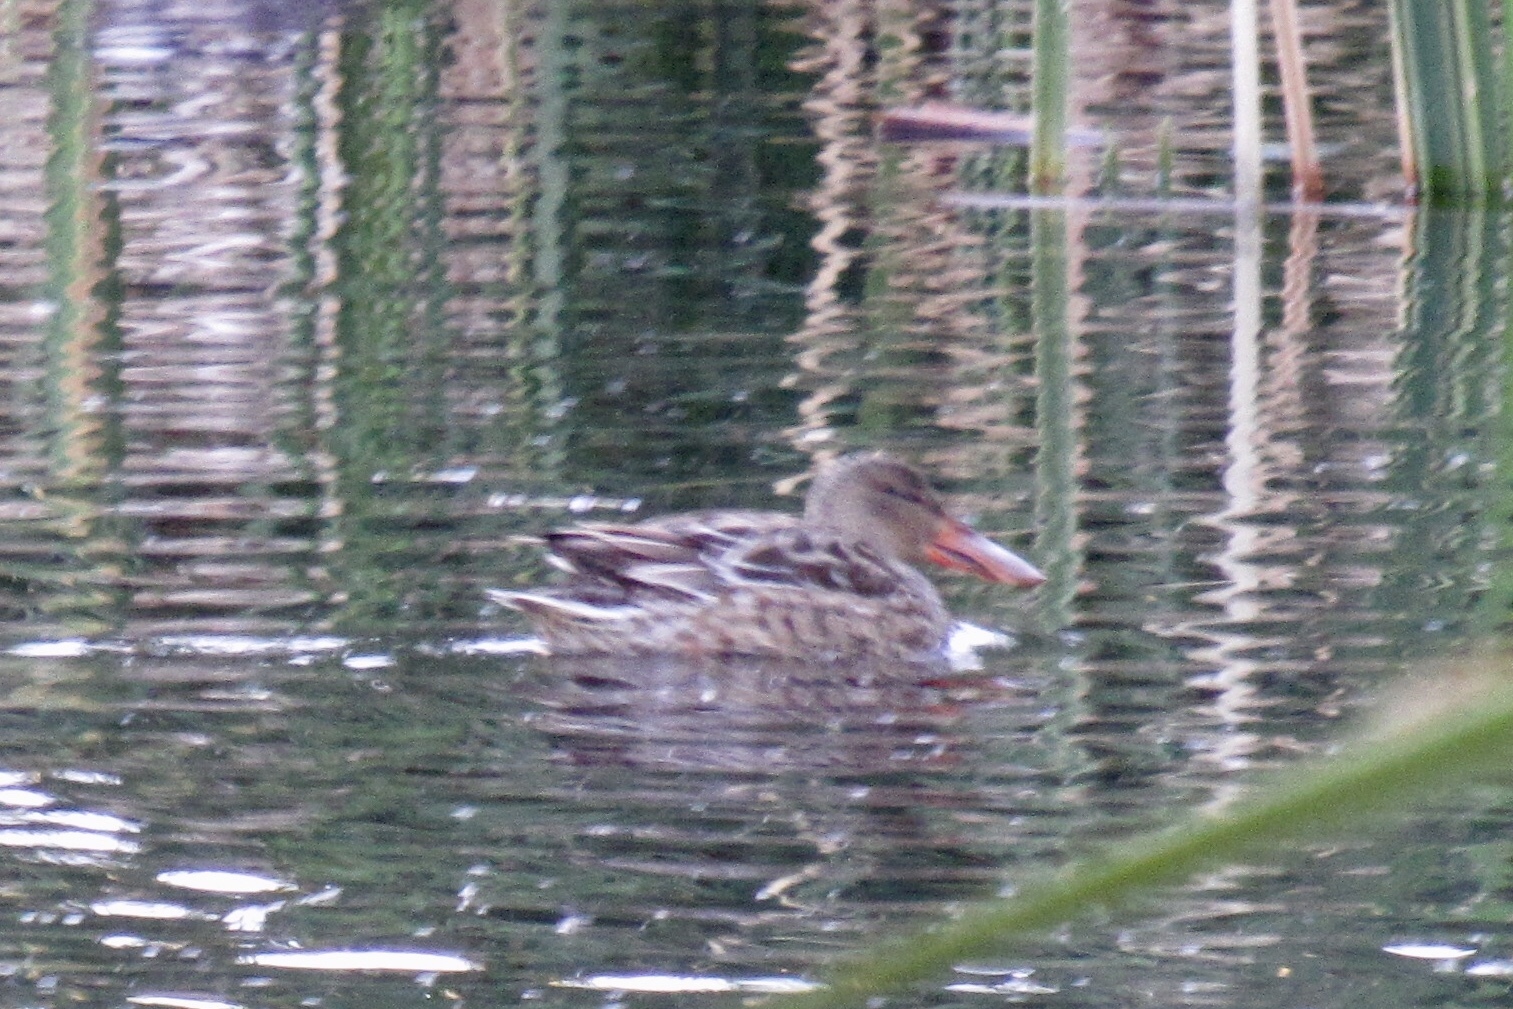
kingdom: Animalia
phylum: Chordata
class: Aves
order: Anseriformes
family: Anatidae
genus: Spatula
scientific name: Spatula clypeata
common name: Northern shoveler
